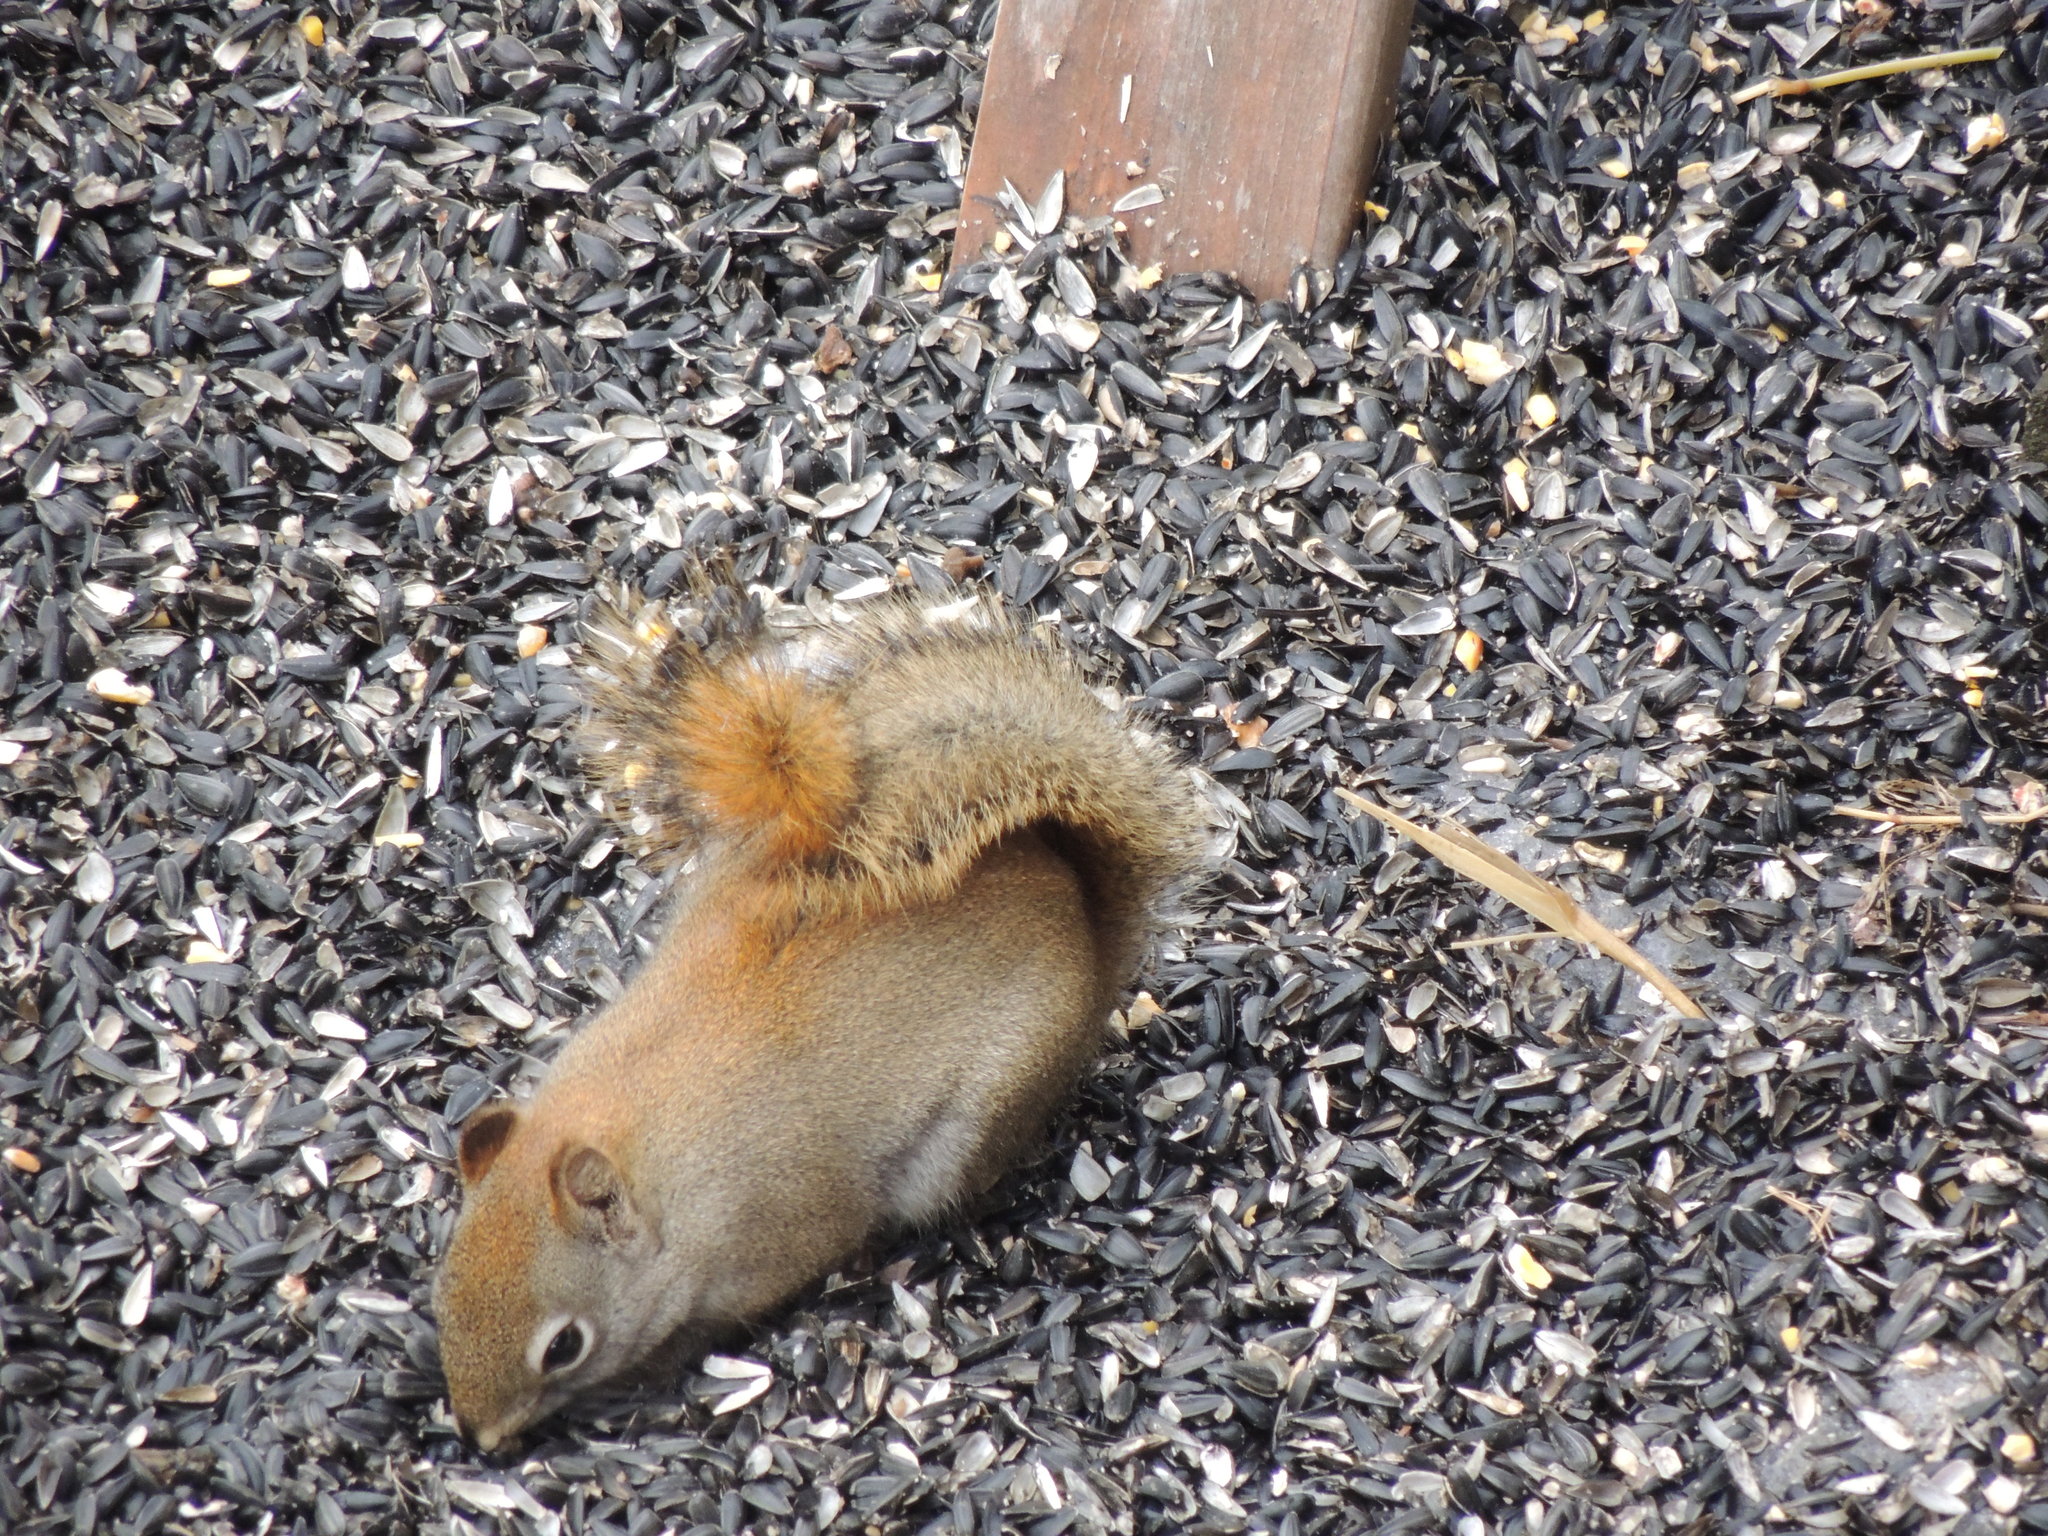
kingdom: Animalia
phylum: Chordata
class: Mammalia
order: Rodentia
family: Sciuridae
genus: Tamiasciurus
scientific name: Tamiasciurus hudsonicus
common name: Red squirrel
